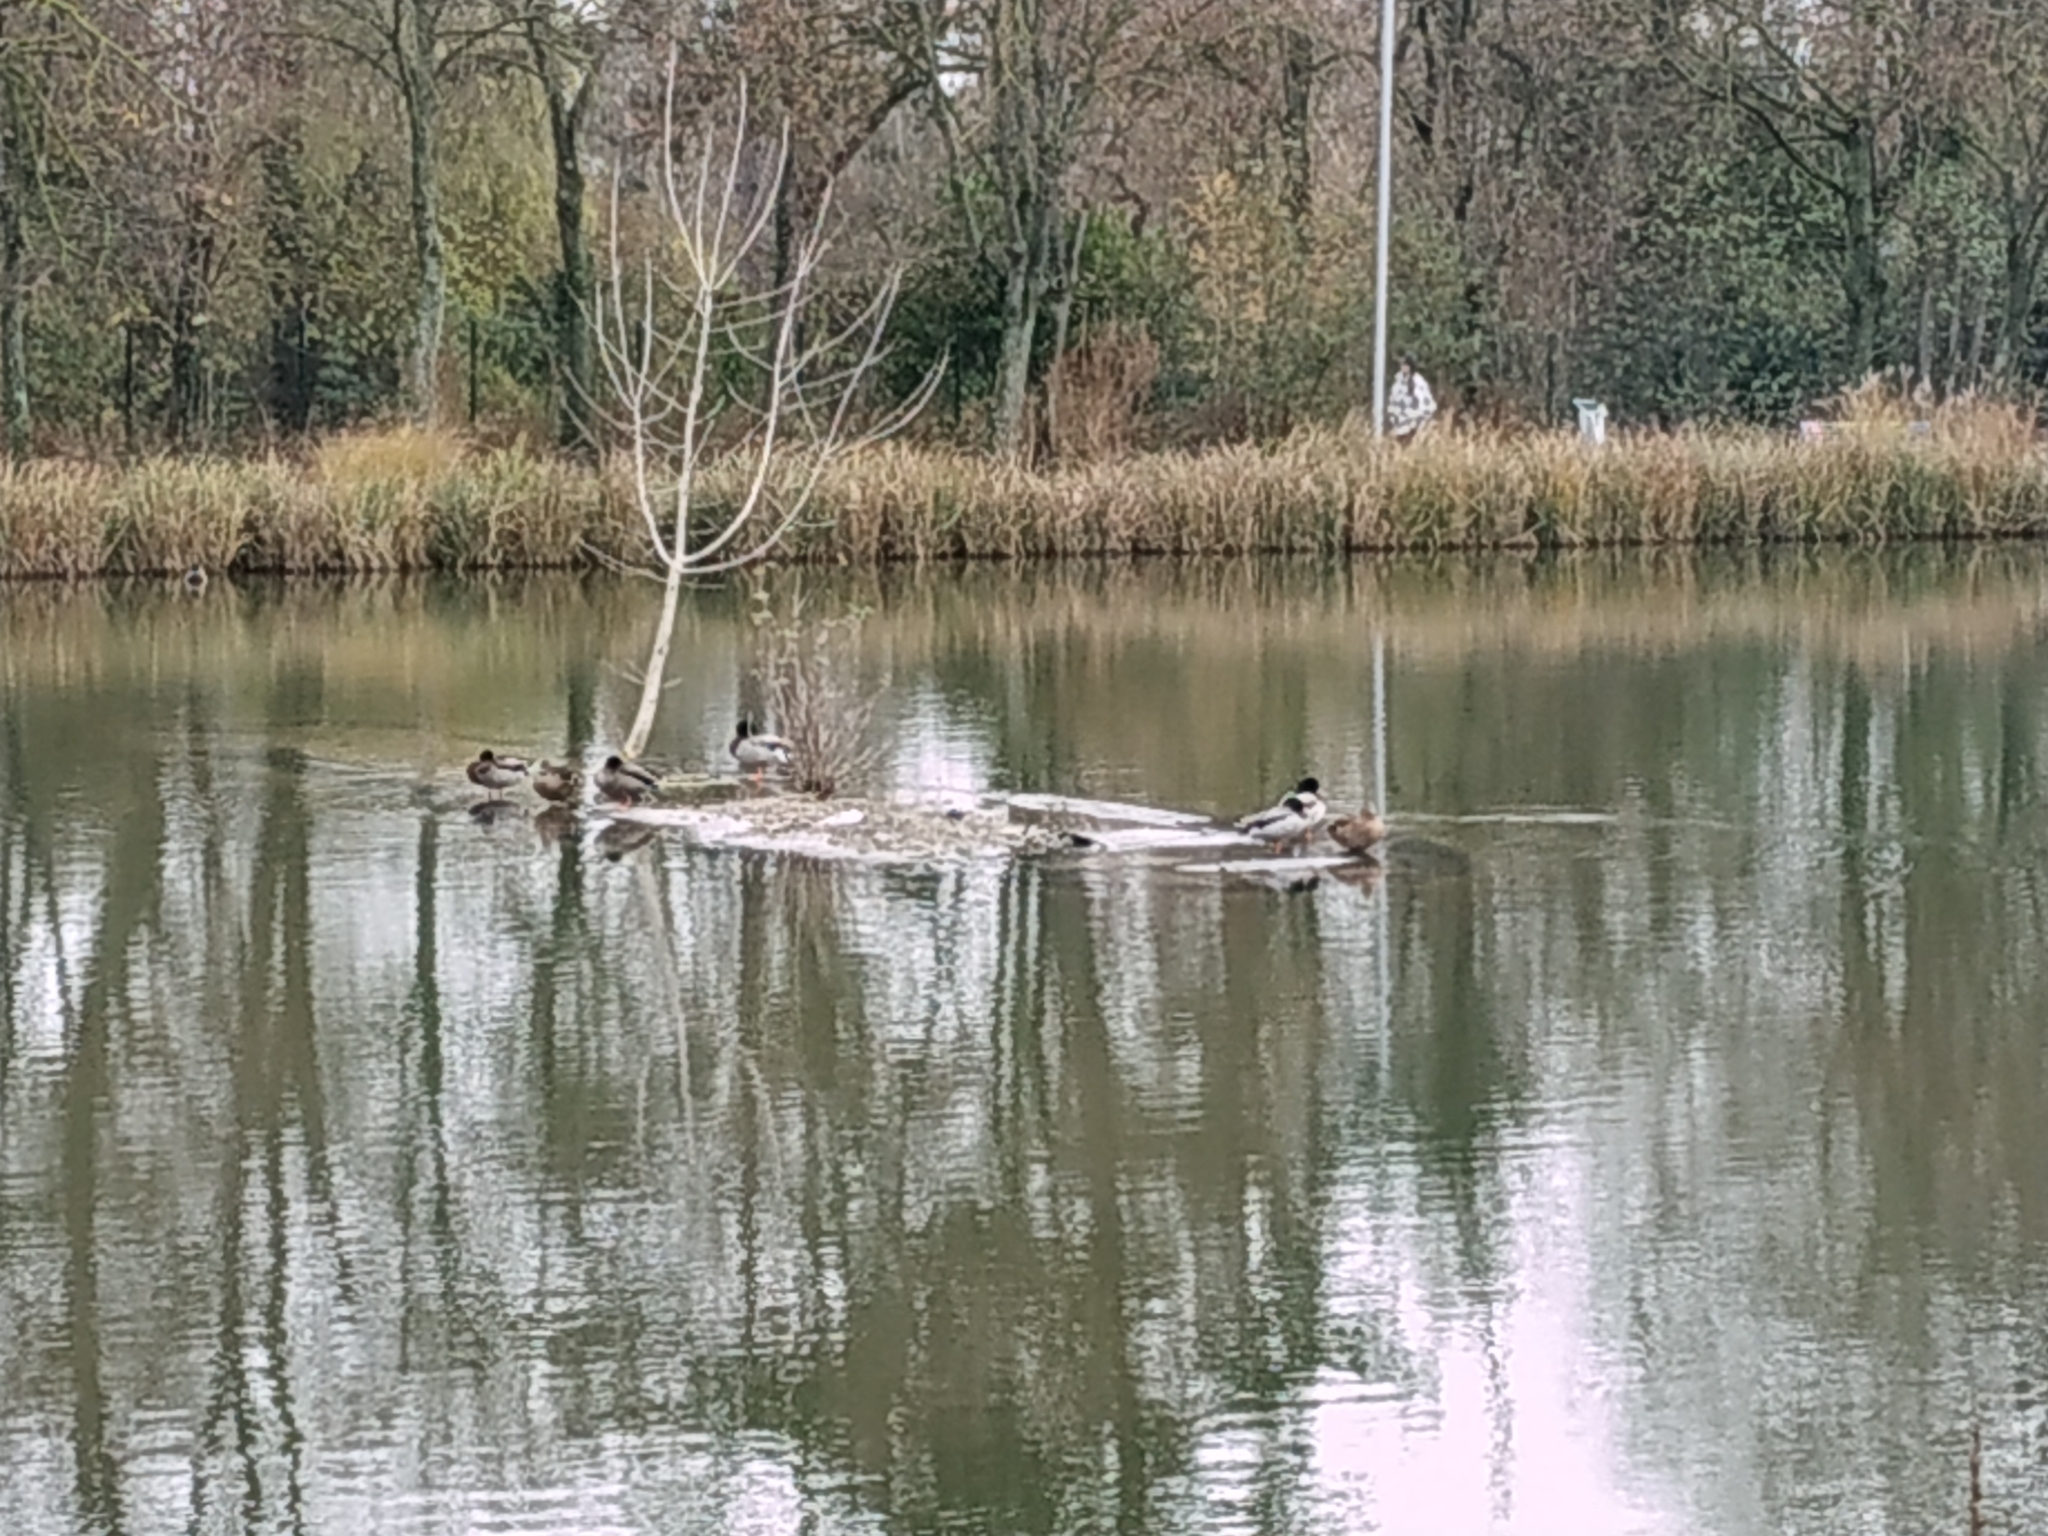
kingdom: Animalia
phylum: Chordata
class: Aves
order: Anseriformes
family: Anatidae
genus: Anas
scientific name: Anas platyrhynchos
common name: Mallard
